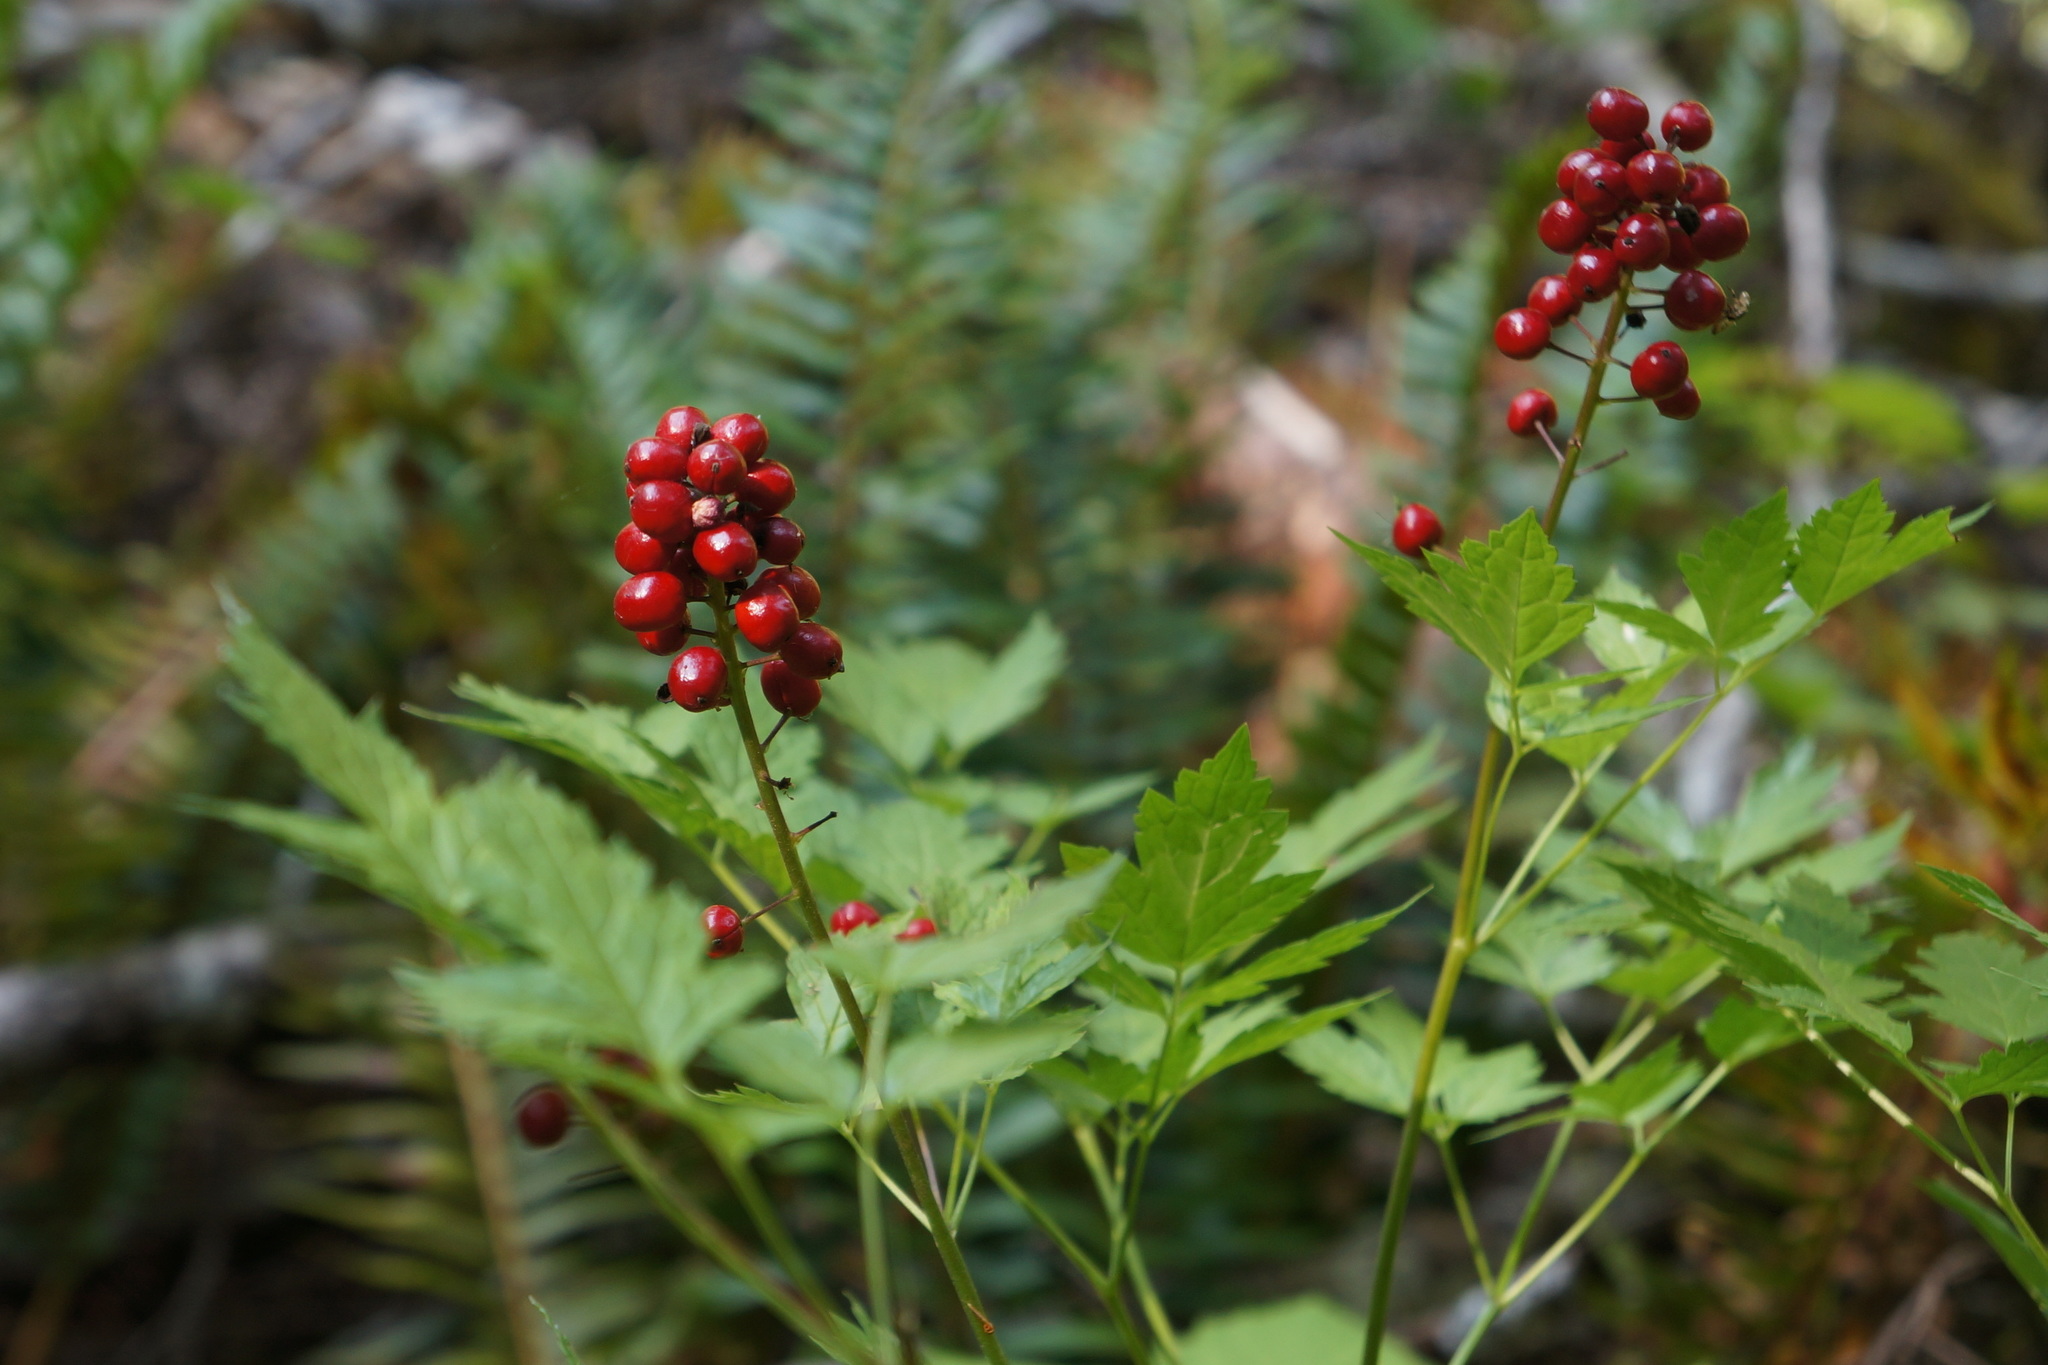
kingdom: Plantae
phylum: Tracheophyta
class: Magnoliopsida
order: Ranunculales
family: Ranunculaceae
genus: Actaea
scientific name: Actaea rubra
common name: Red baneberry
